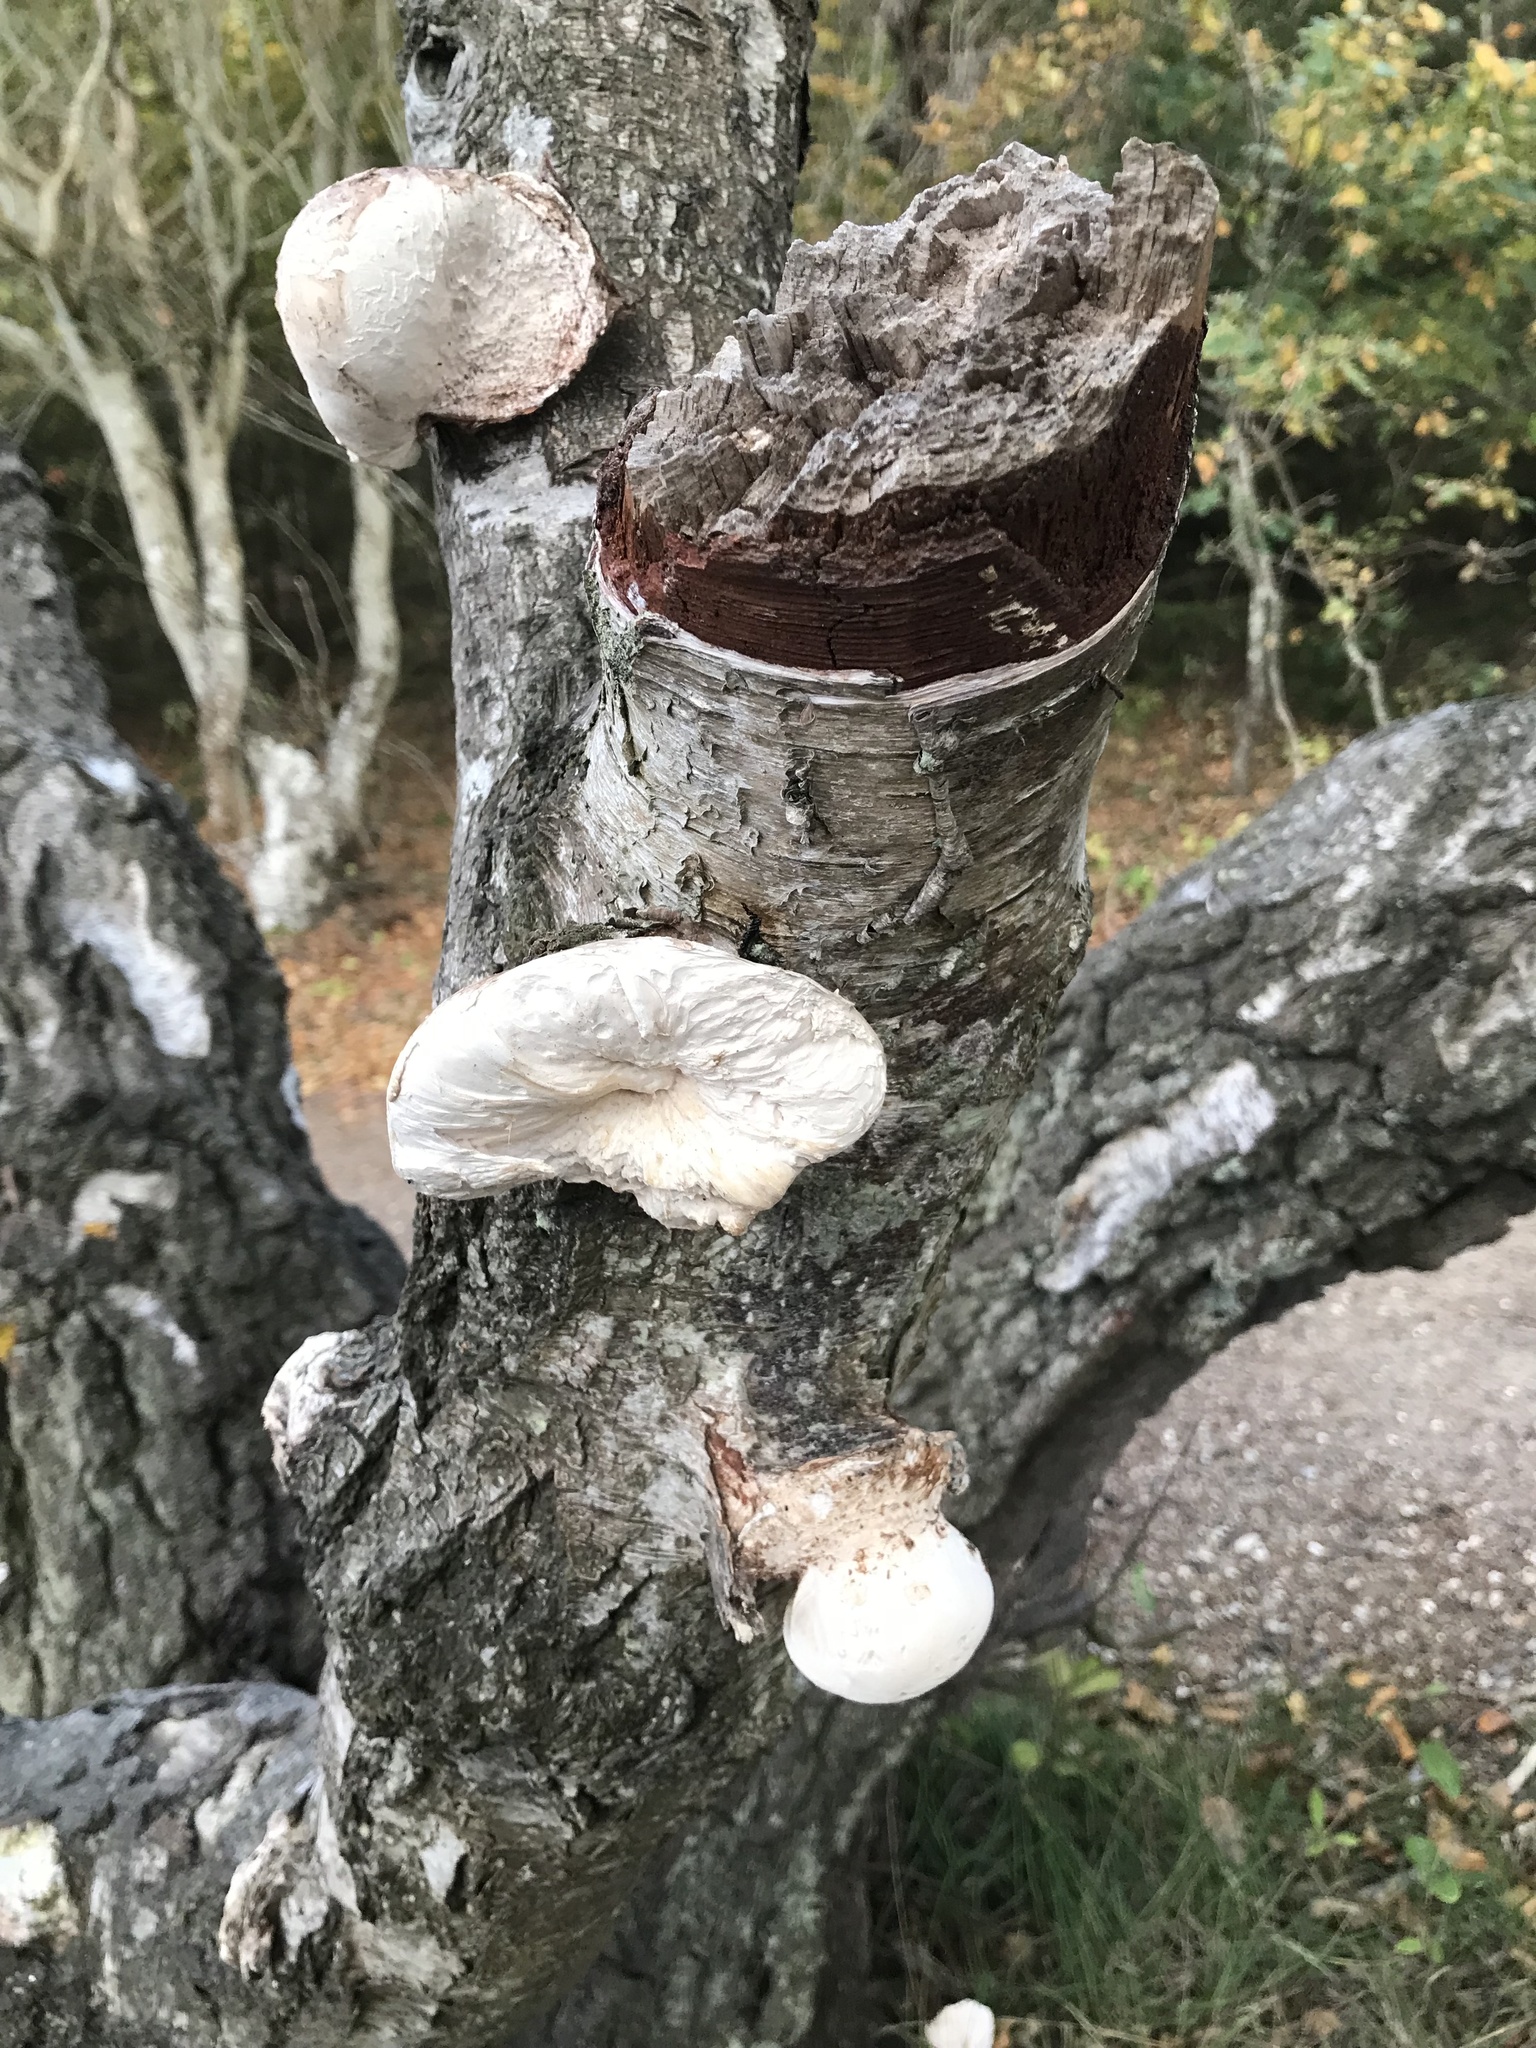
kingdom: Fungi
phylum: Basidiomycota
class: Agaricomycetes
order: Polyporales
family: Fomitopsidaceae
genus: Fomitopsis
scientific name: Fomitopsis betulina
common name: Birch polypore
